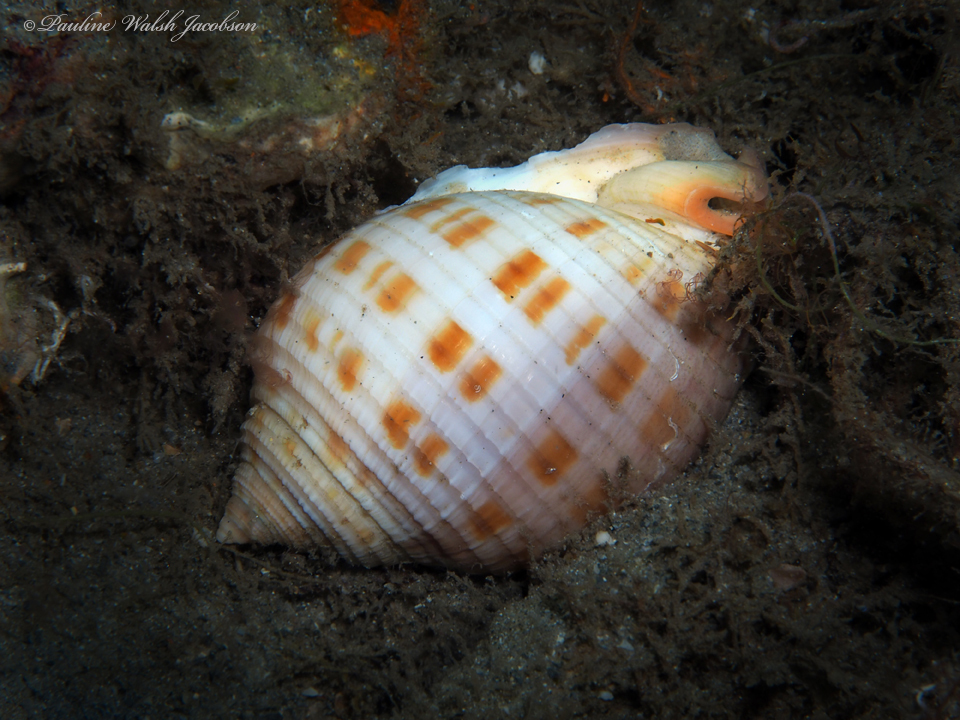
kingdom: Animalia
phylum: Mollusca
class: Gastropoda
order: Littorinimorpha
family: Cassidae
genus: Semicassis
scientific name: Semicassis granulata
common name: Scotch bonnet
